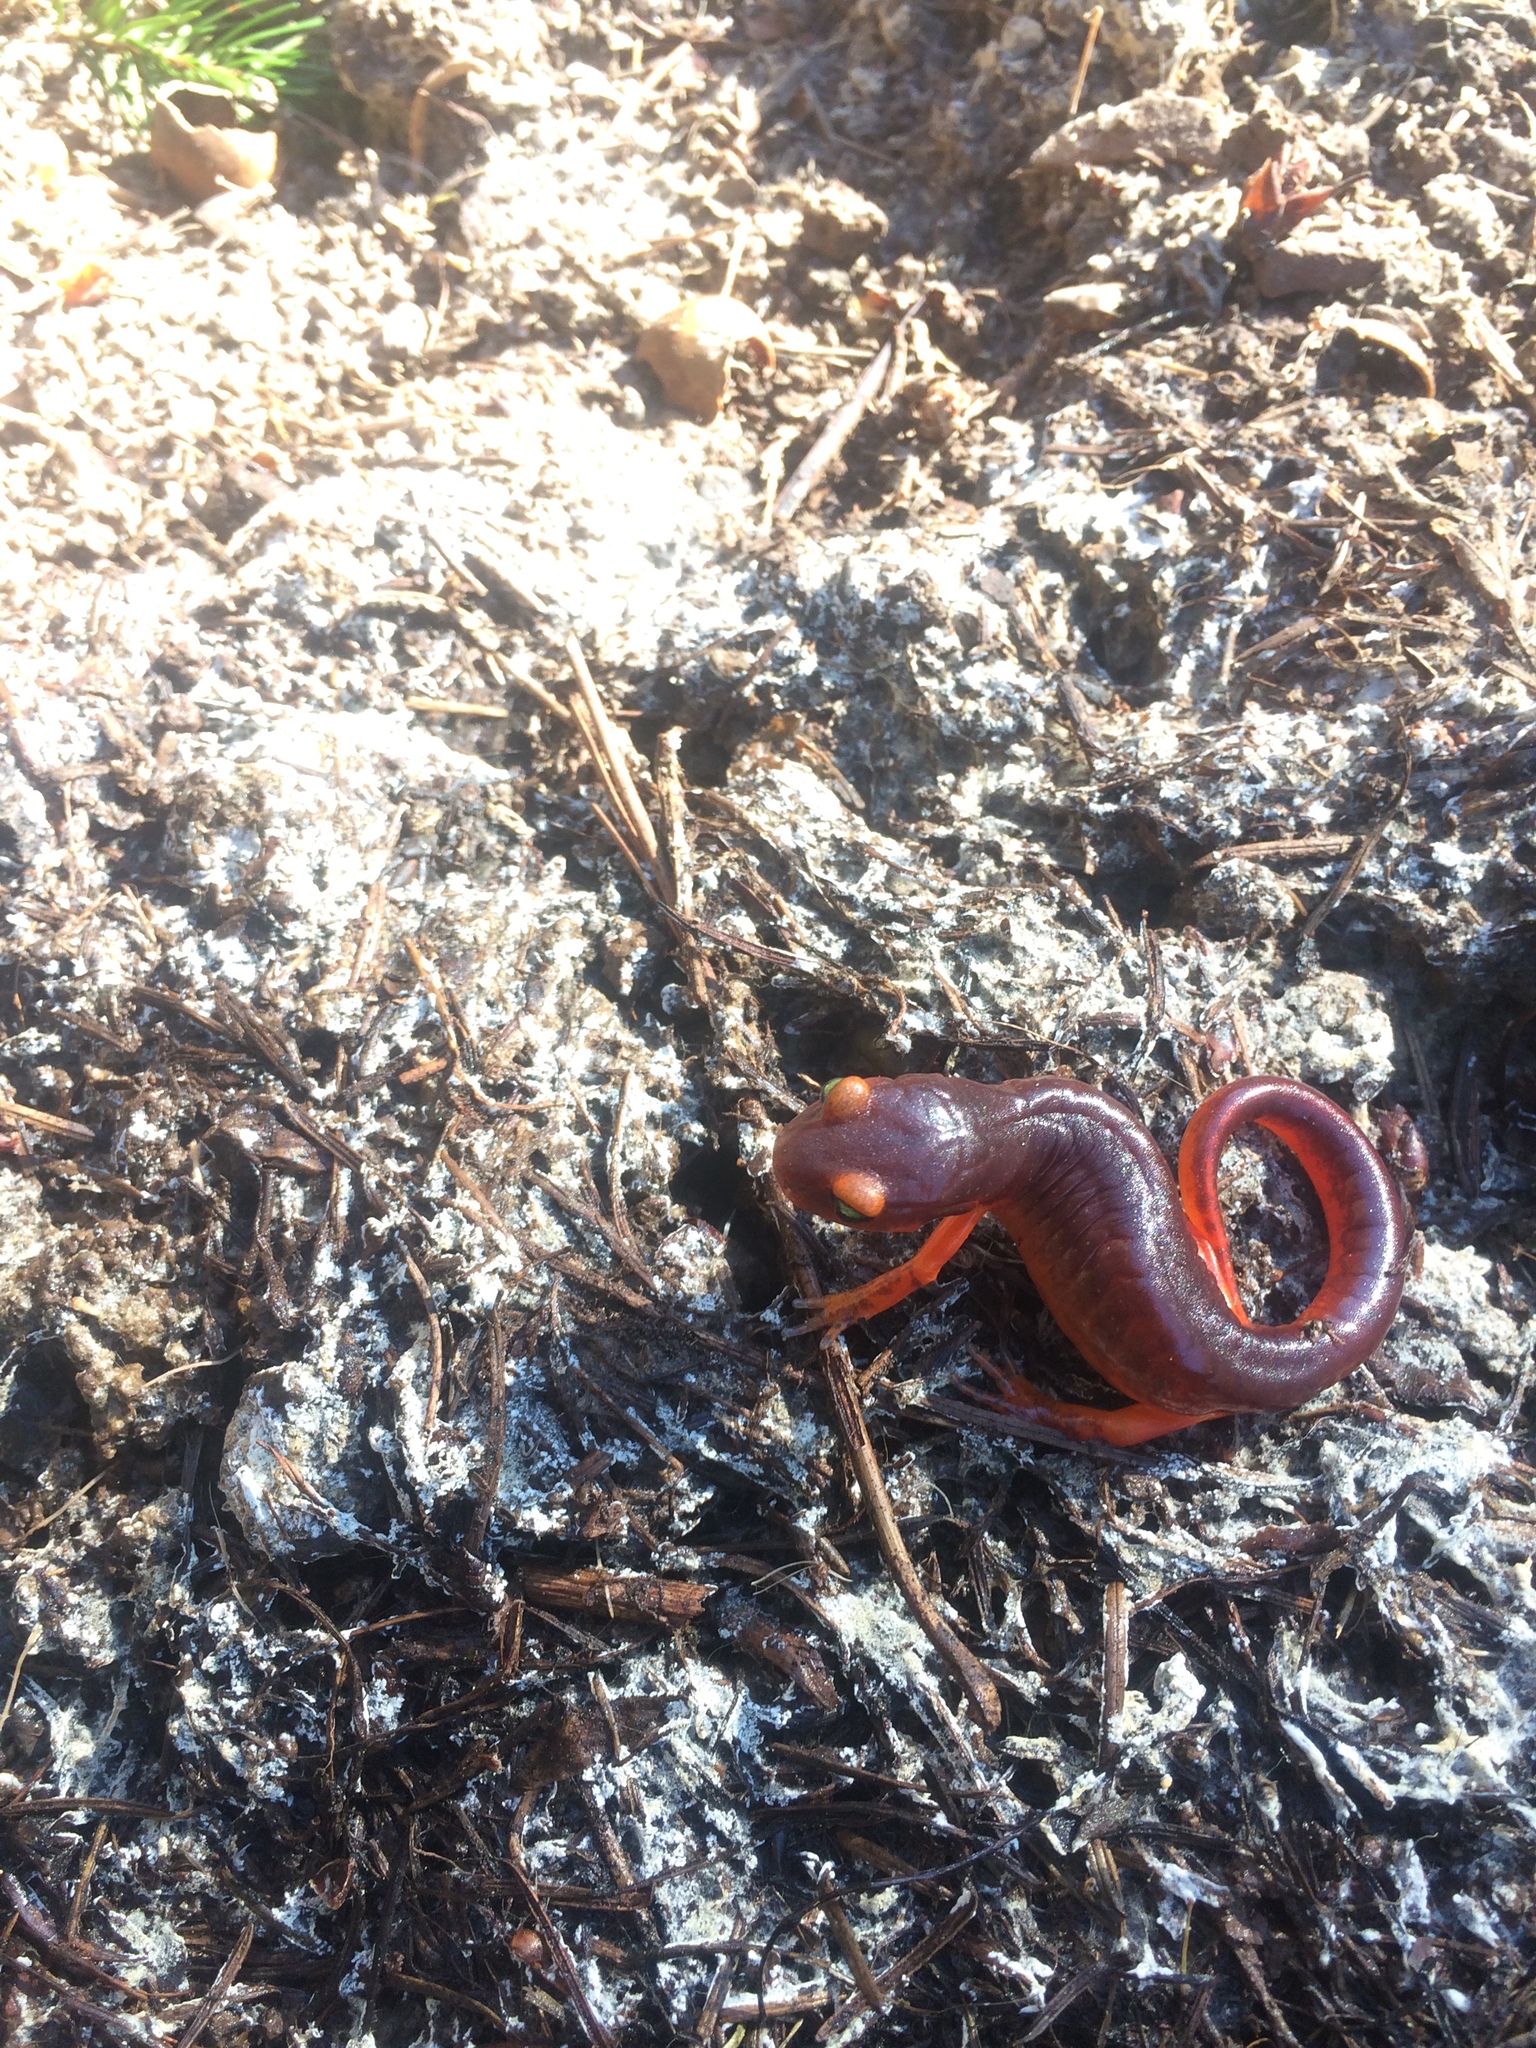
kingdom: Animalia
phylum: Chordata
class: Amphibia
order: Caudata
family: Plethodontidae
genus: Ensatina
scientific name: Ensatina eschscholtzii
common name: Ensatina
